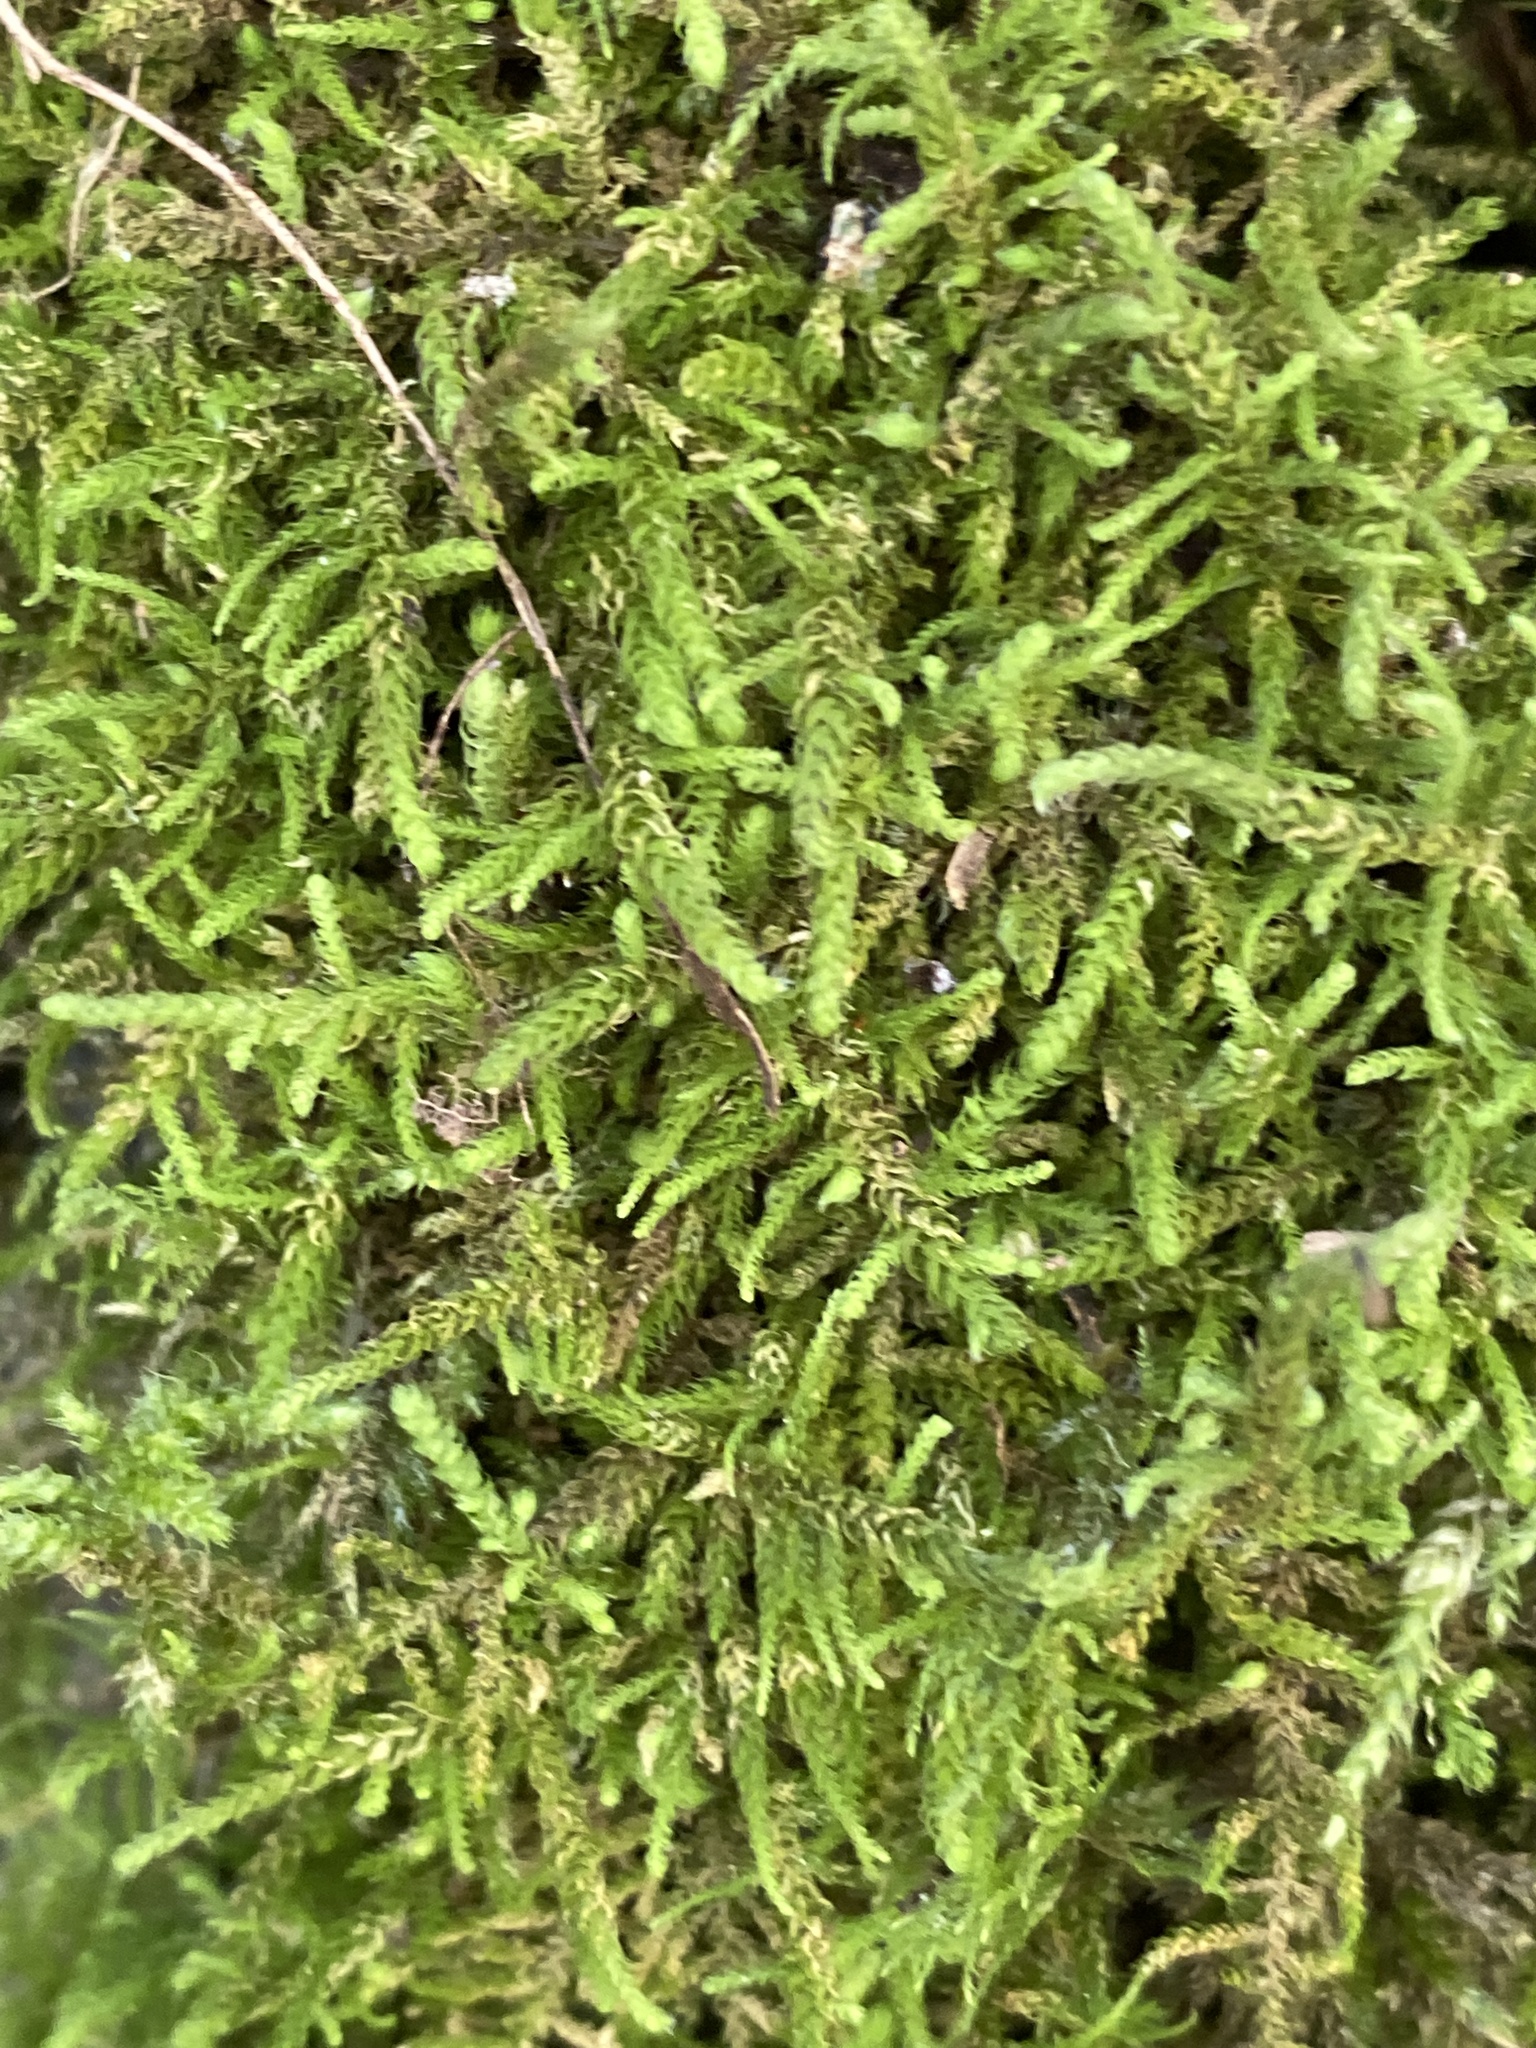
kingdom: Plantae
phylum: Bryophyta
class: Bryopsida
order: Hypnales
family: Brachytheciaceae
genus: Kindbergia
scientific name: Kindbergia oregana
